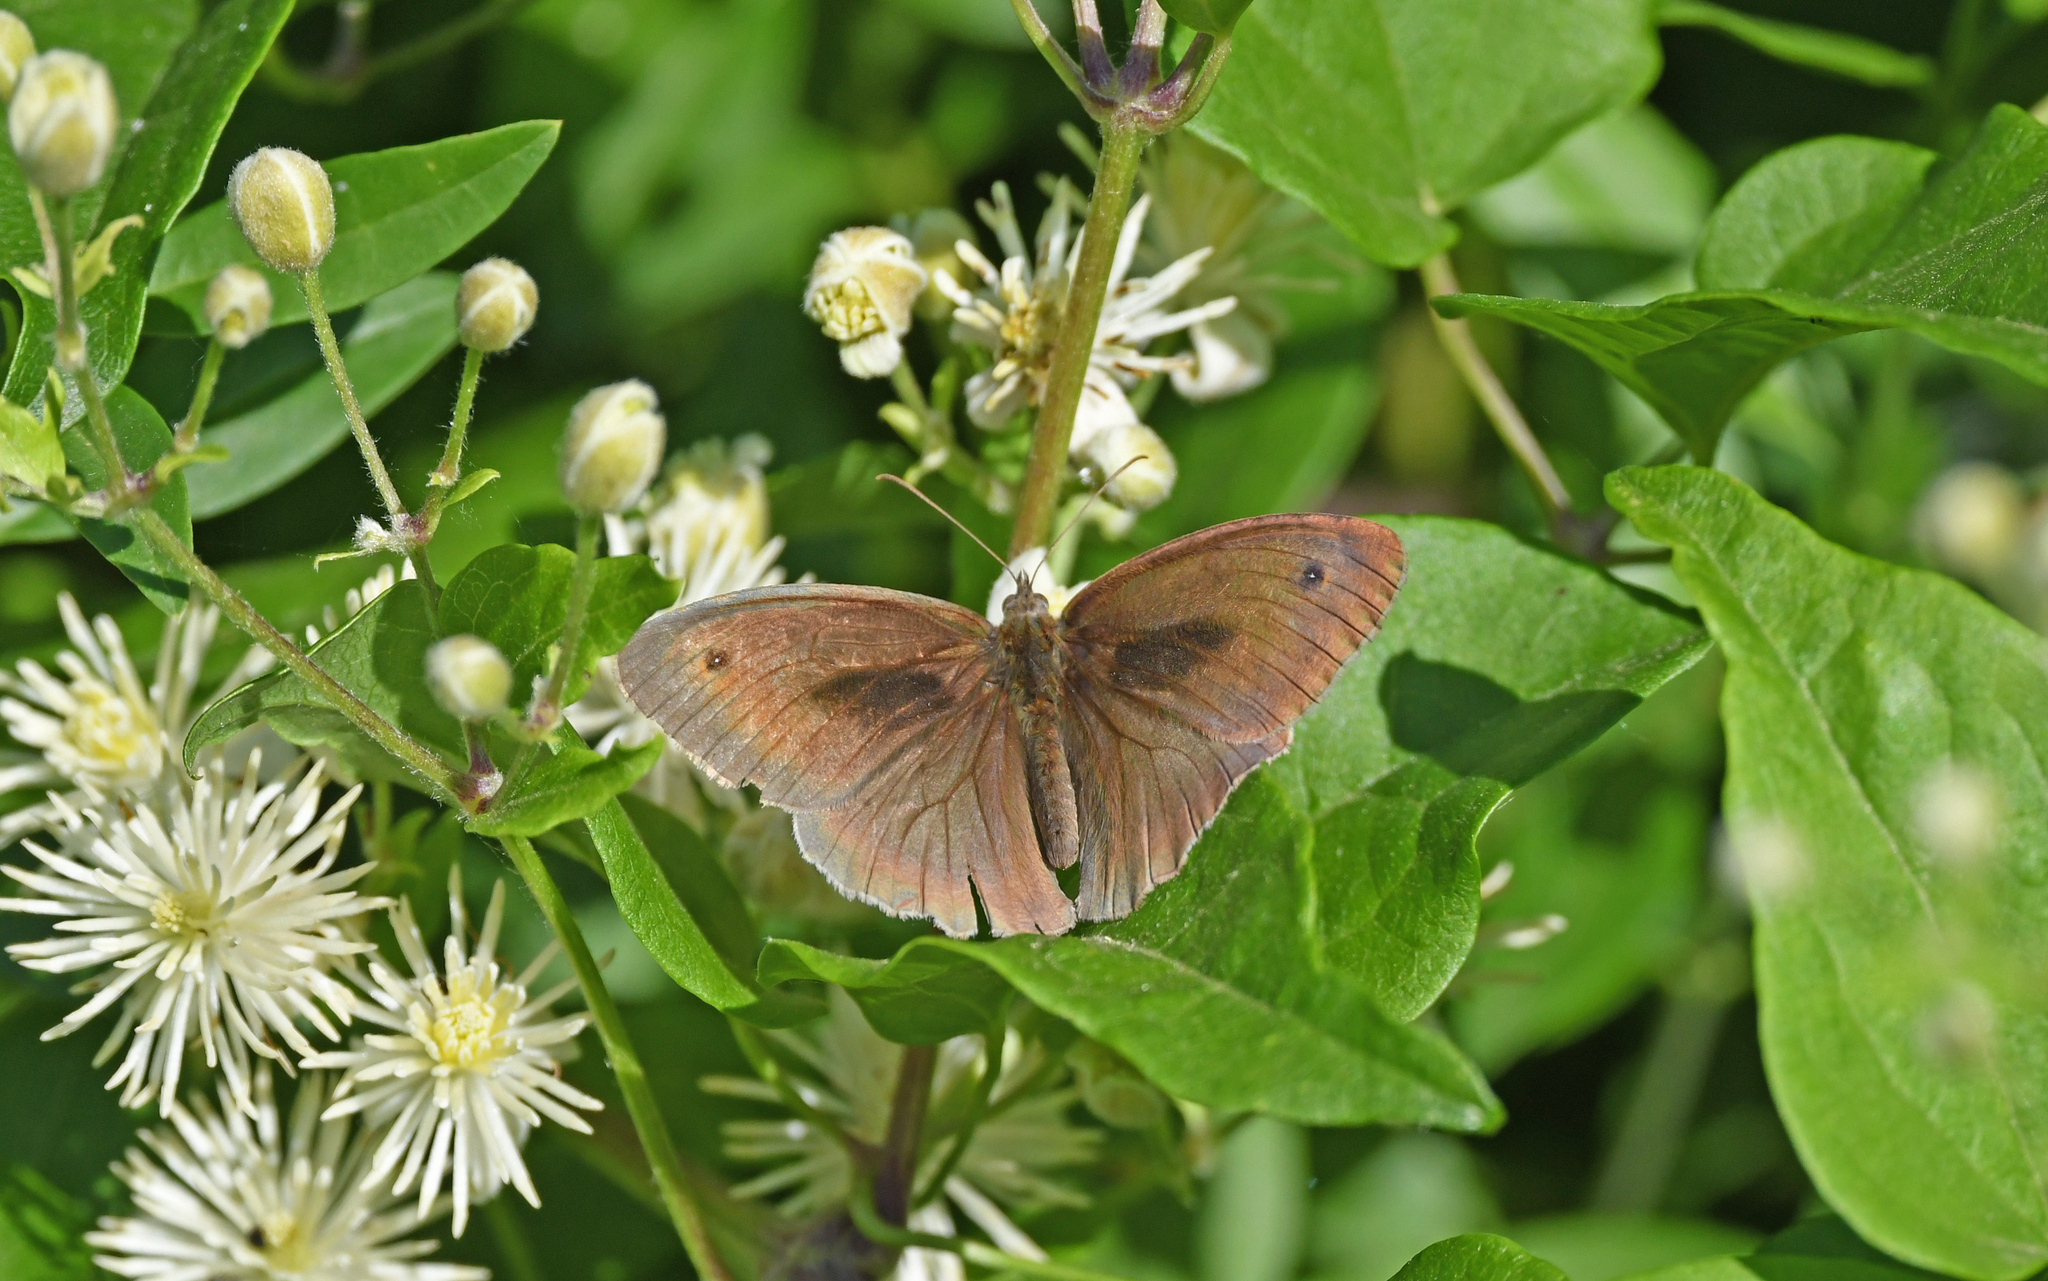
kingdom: Animalia
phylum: Arthropoda
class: Insecta
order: Lepidoptera
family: Nymphalidae
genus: Maniola
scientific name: Maniola jurtina
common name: Meadow brown
